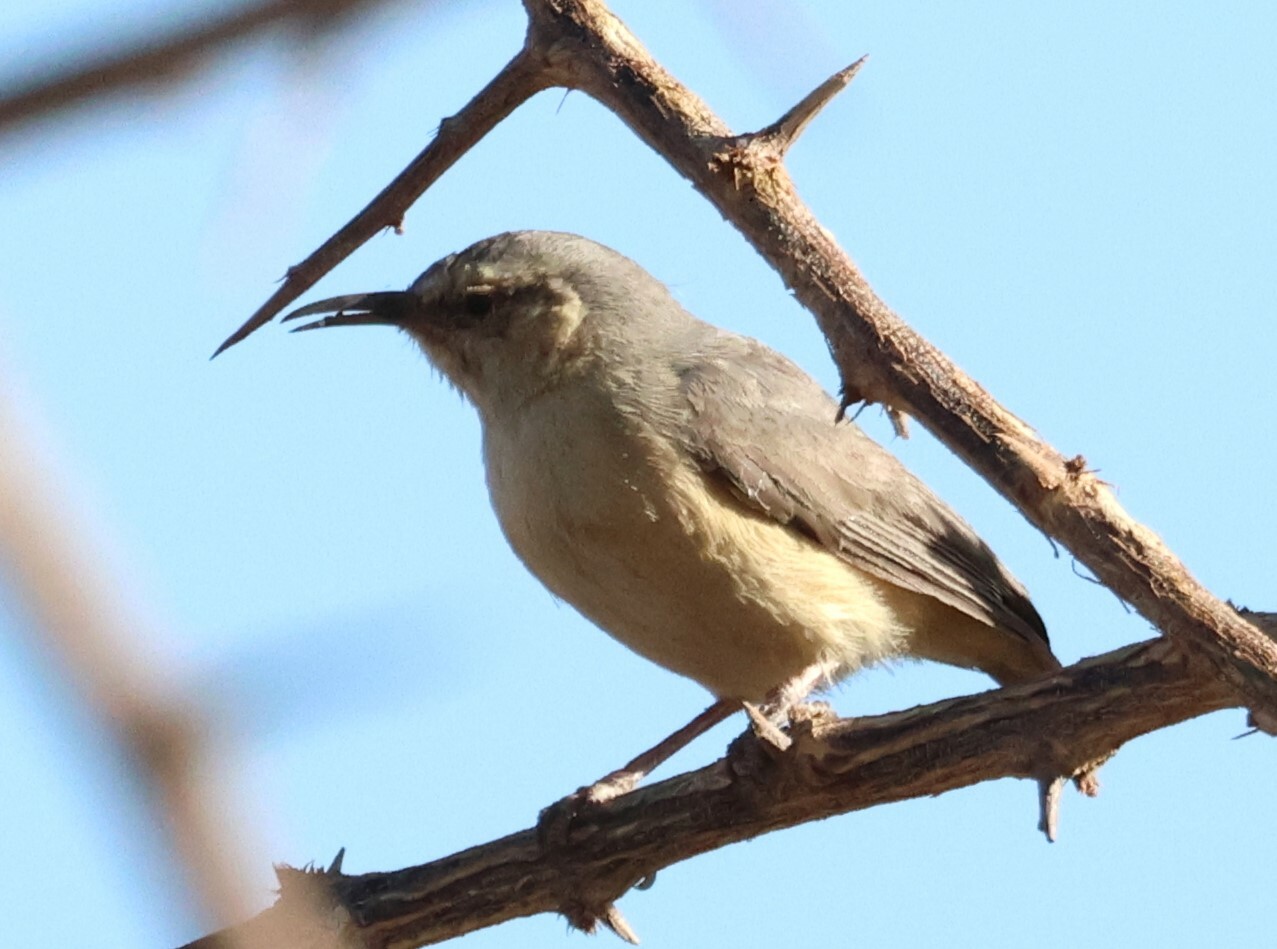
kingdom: Animalia
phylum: Chordata
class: Aves
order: Passeriformes
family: Macrosphenidae
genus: Sylvietta
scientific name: Sylvietta rufescens
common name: Long-billed crombec
